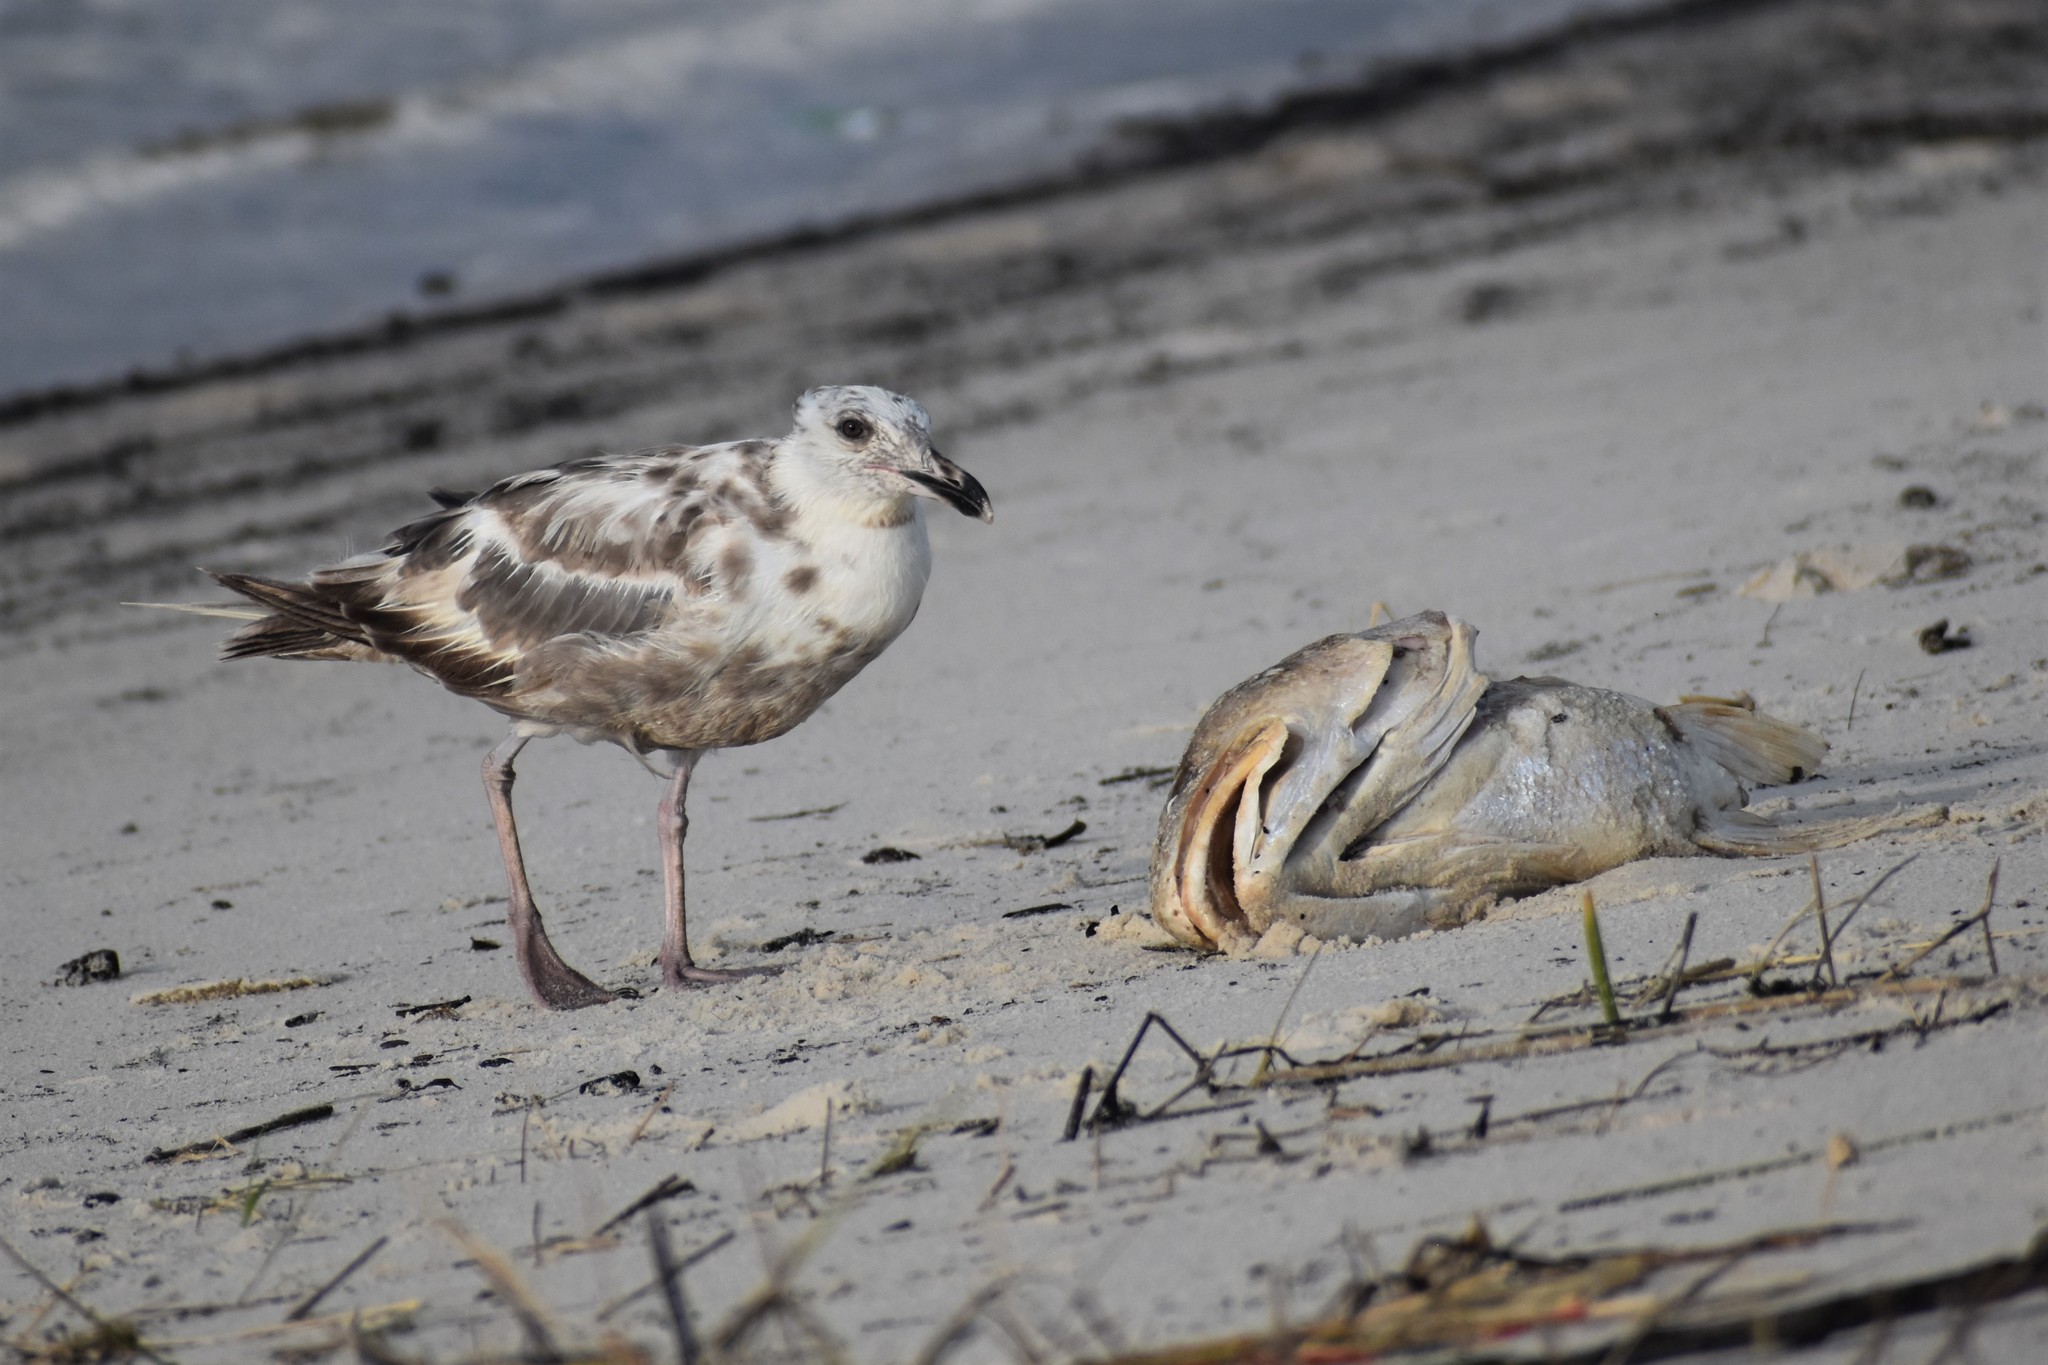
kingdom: Animalia
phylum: Chordata
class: Aves
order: Charadriiformes
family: Laridae
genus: Larus
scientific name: Larus argentatus
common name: Herring gull
